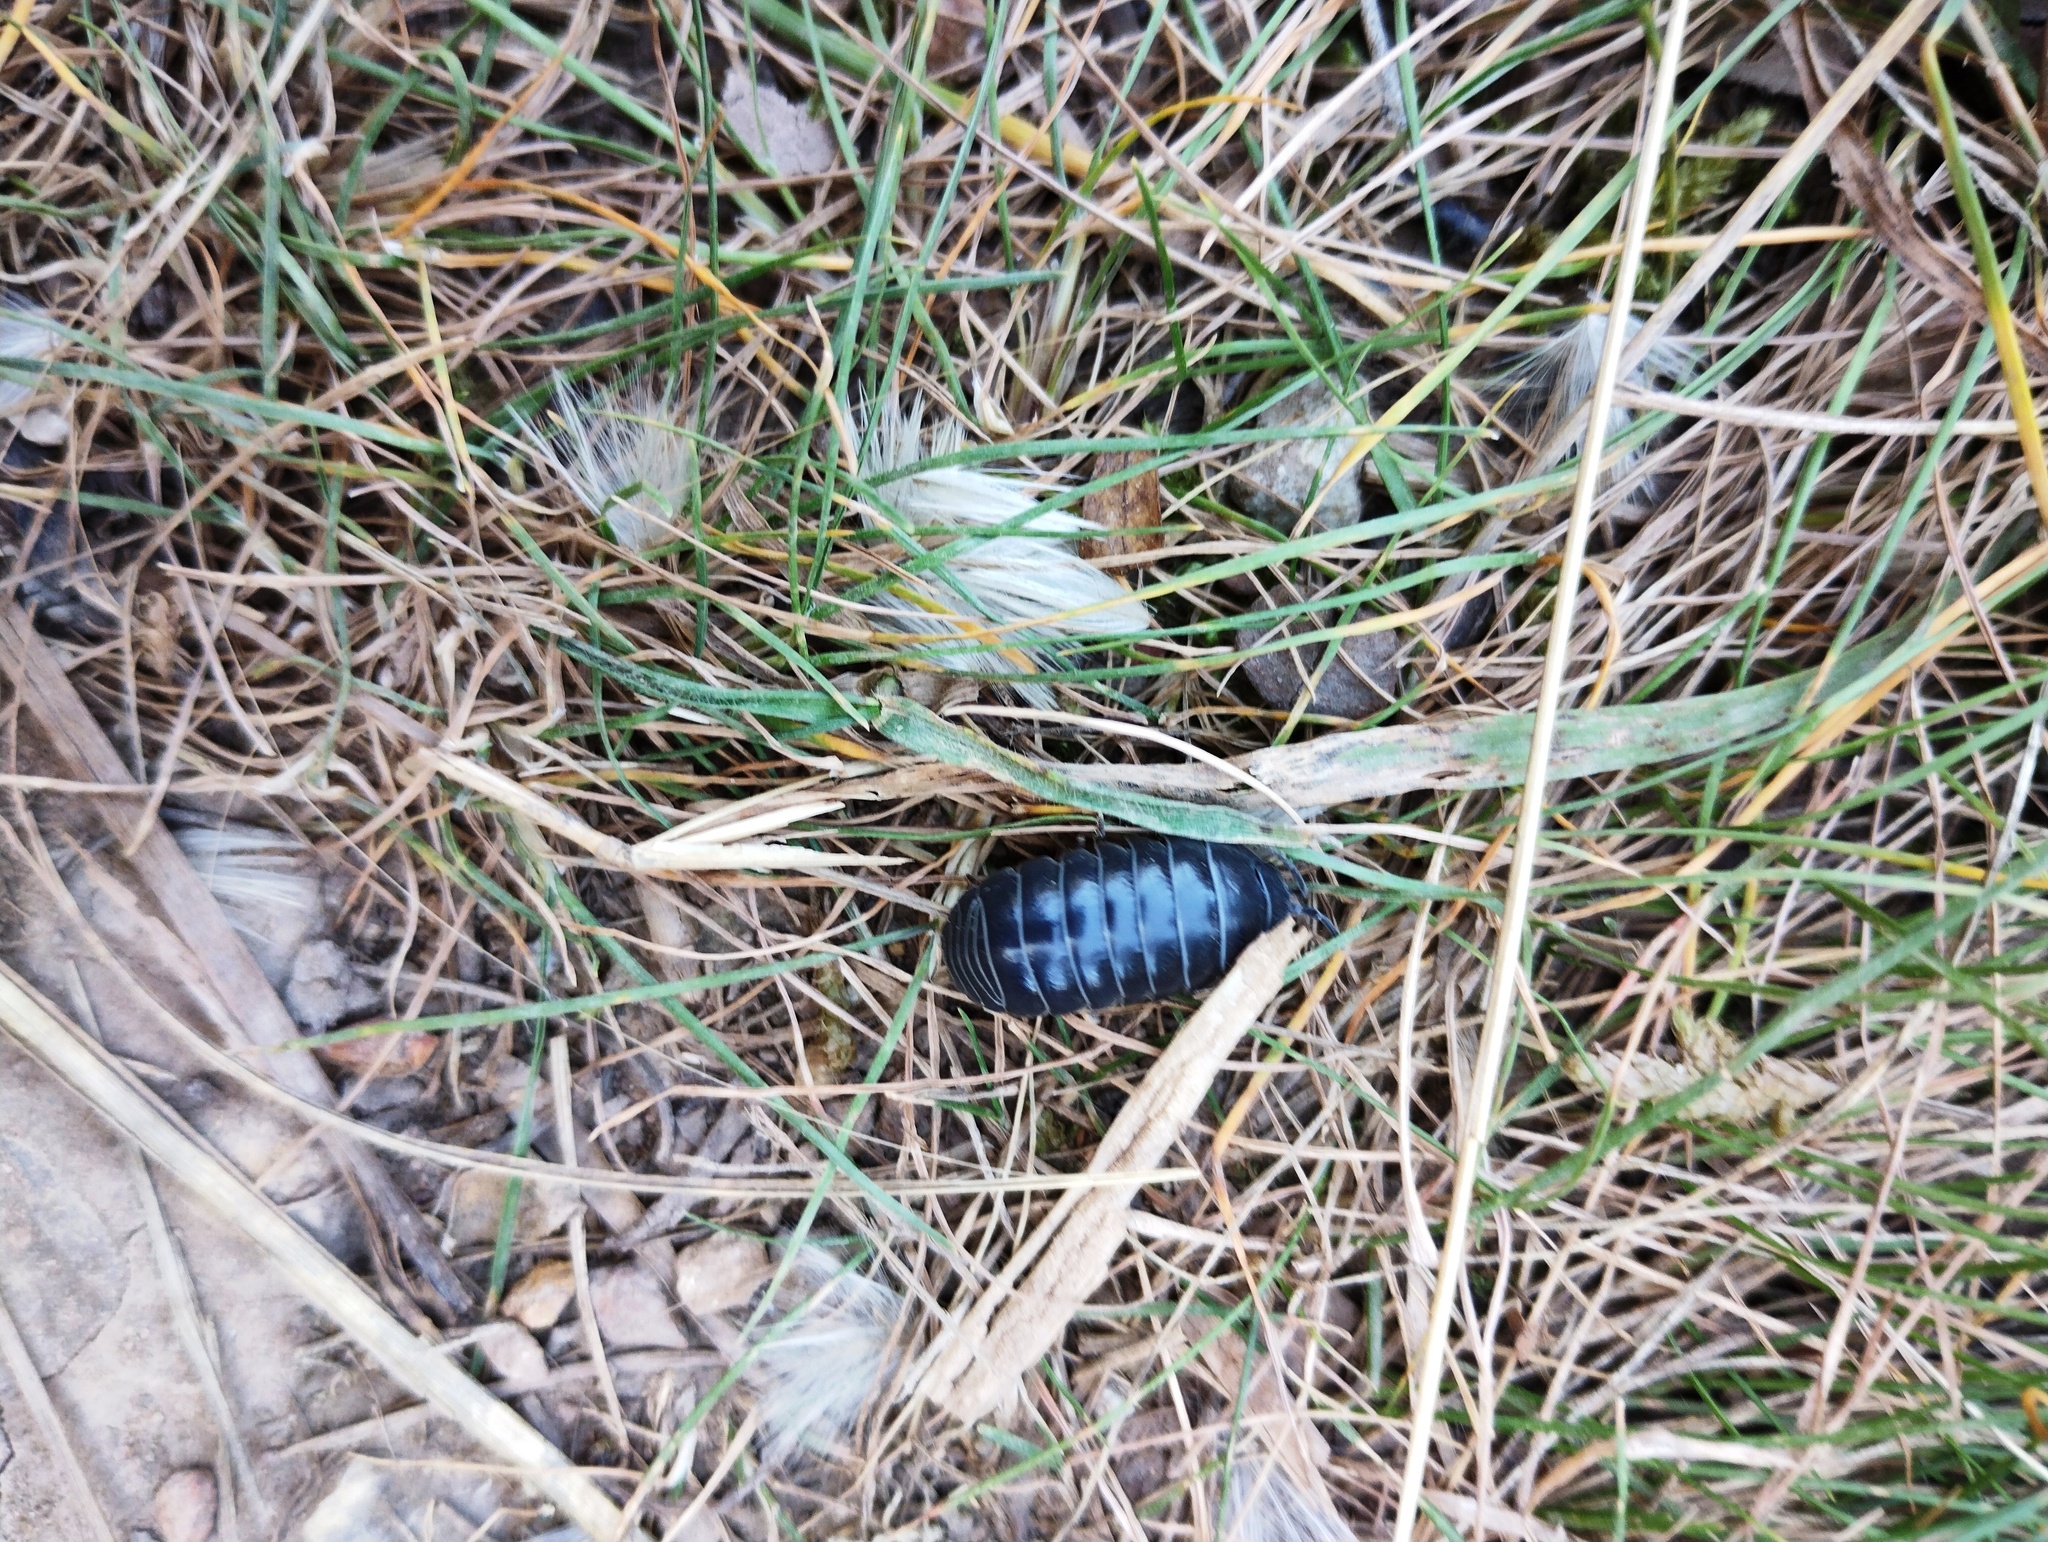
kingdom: Animalia
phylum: Arthropoda
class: Malacostraca
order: Isopoda
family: Armadillidiidae
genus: Armadillidium
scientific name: Armadillidium vulgare
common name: Common pill woodlouse
